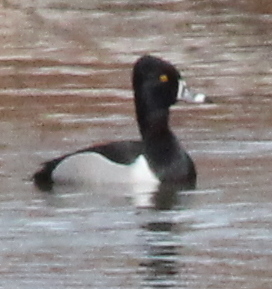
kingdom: Animalia
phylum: Chordata
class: Aves
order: Anseriformes
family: Anatidae
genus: Aythya
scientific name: Aythya collaris
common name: Ring-necked duck
